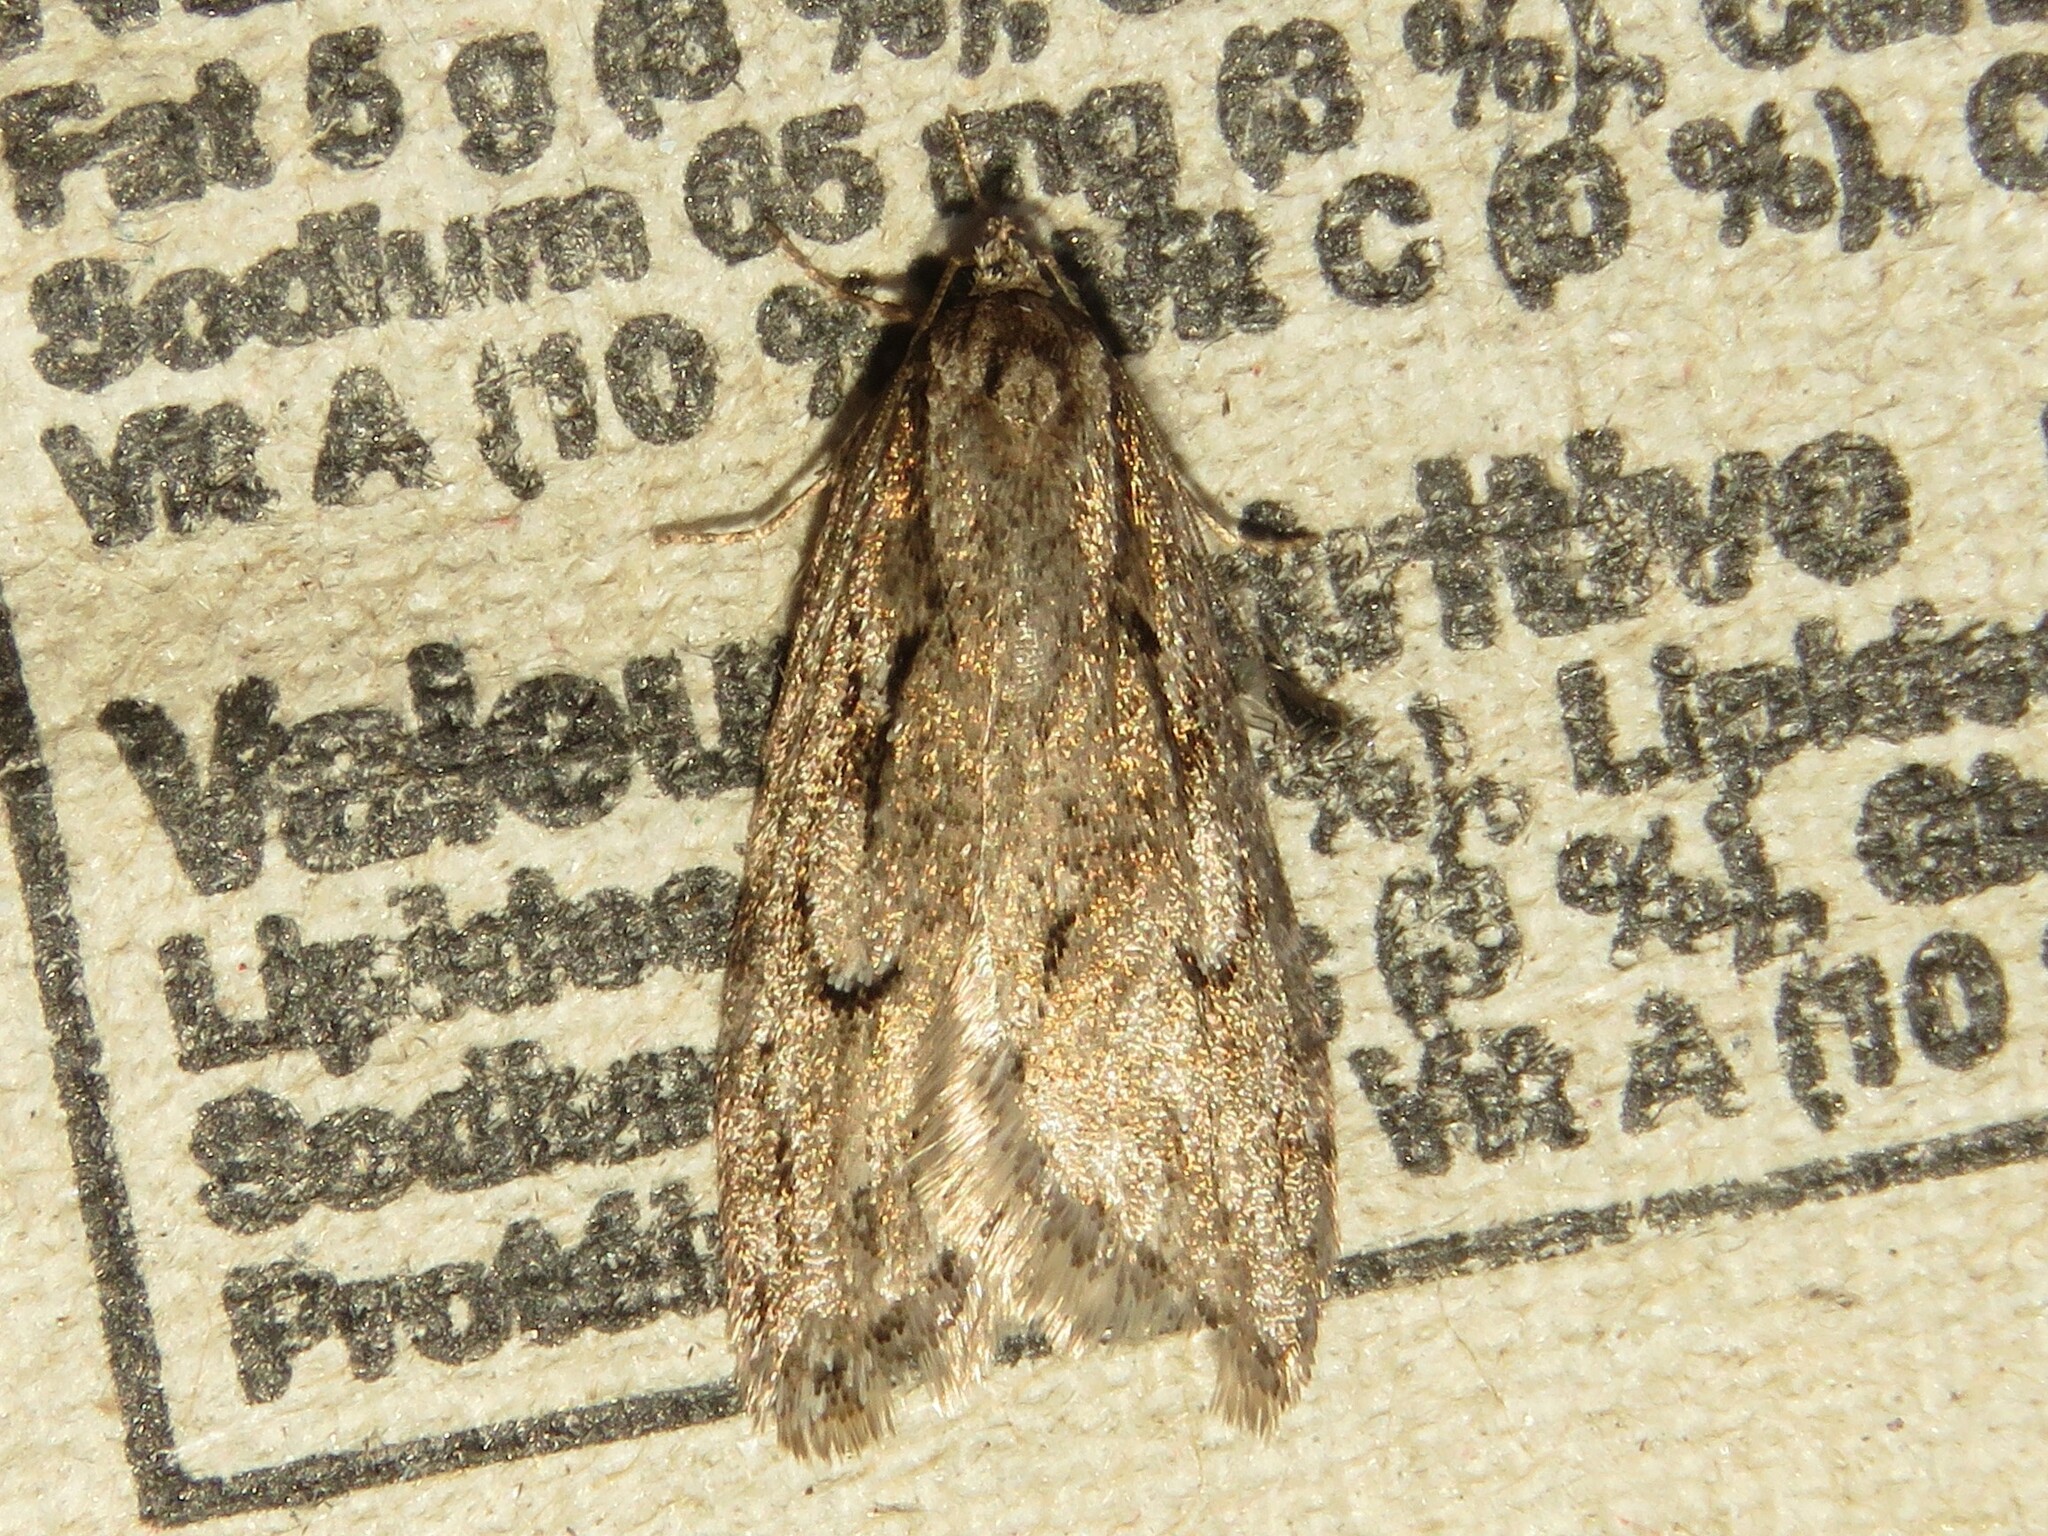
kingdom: Animalia
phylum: Arthropoda
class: Insecta
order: Lepidoptera
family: Depressariidae
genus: Semioscopis
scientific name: Semioscopis aurorella
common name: Aurora flatbody moth
